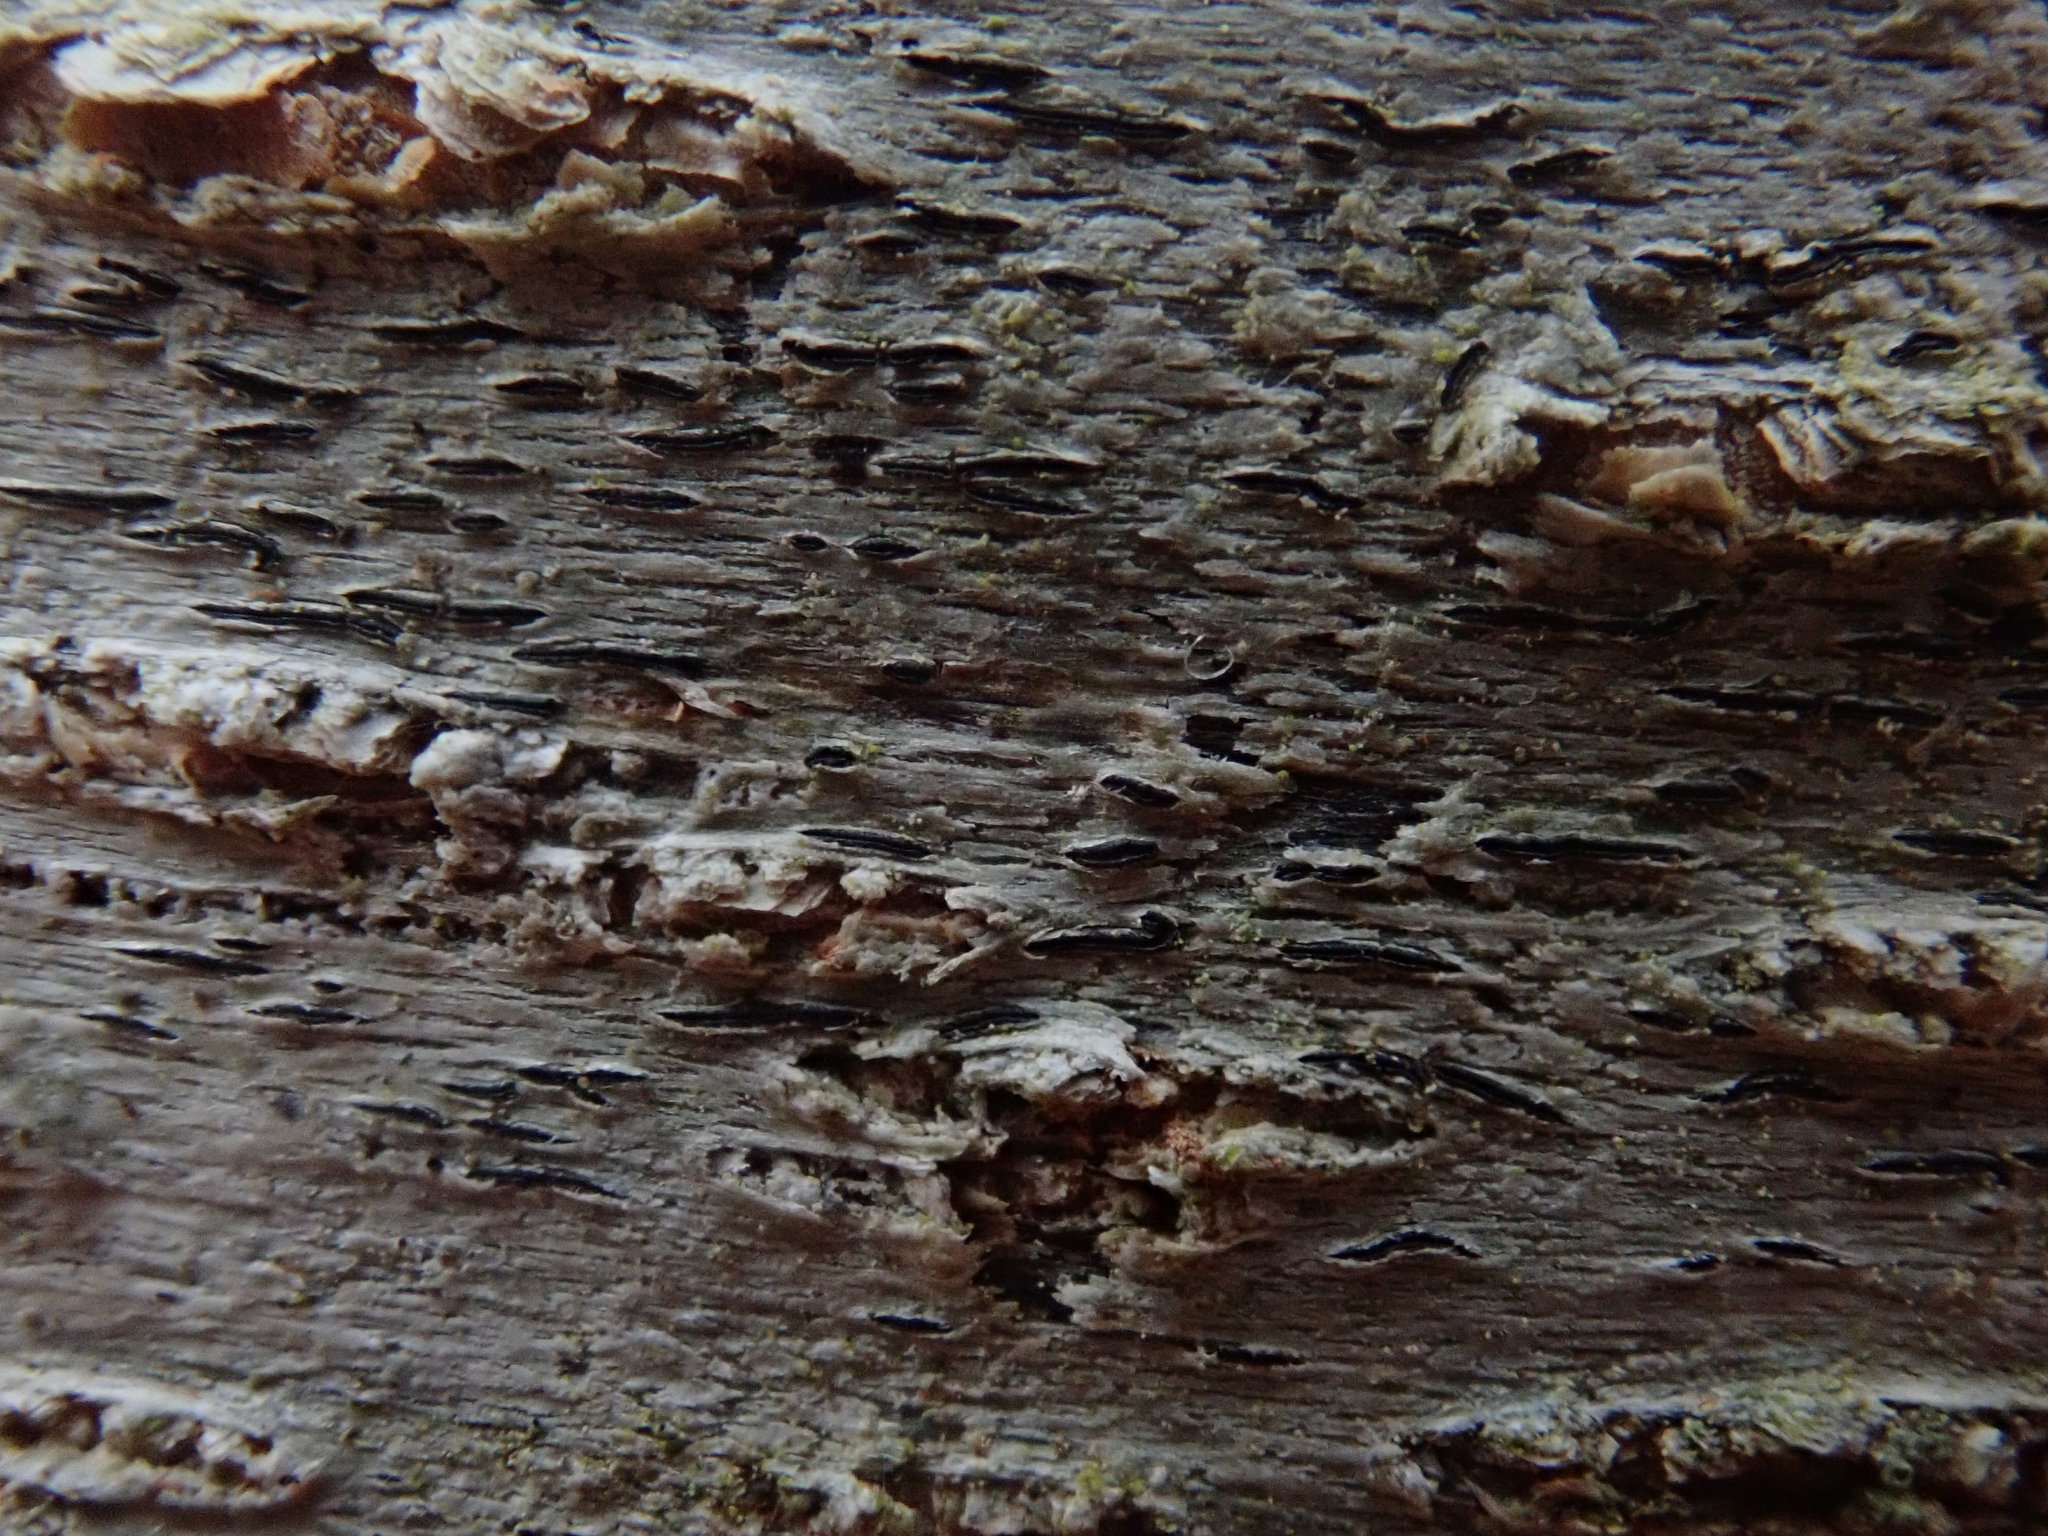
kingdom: Fungi
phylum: Ascomycota
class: Lecanoromycetes
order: Ostropales
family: Graphidaceae
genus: Graphis
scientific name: Graphis scripta
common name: Script lichen
